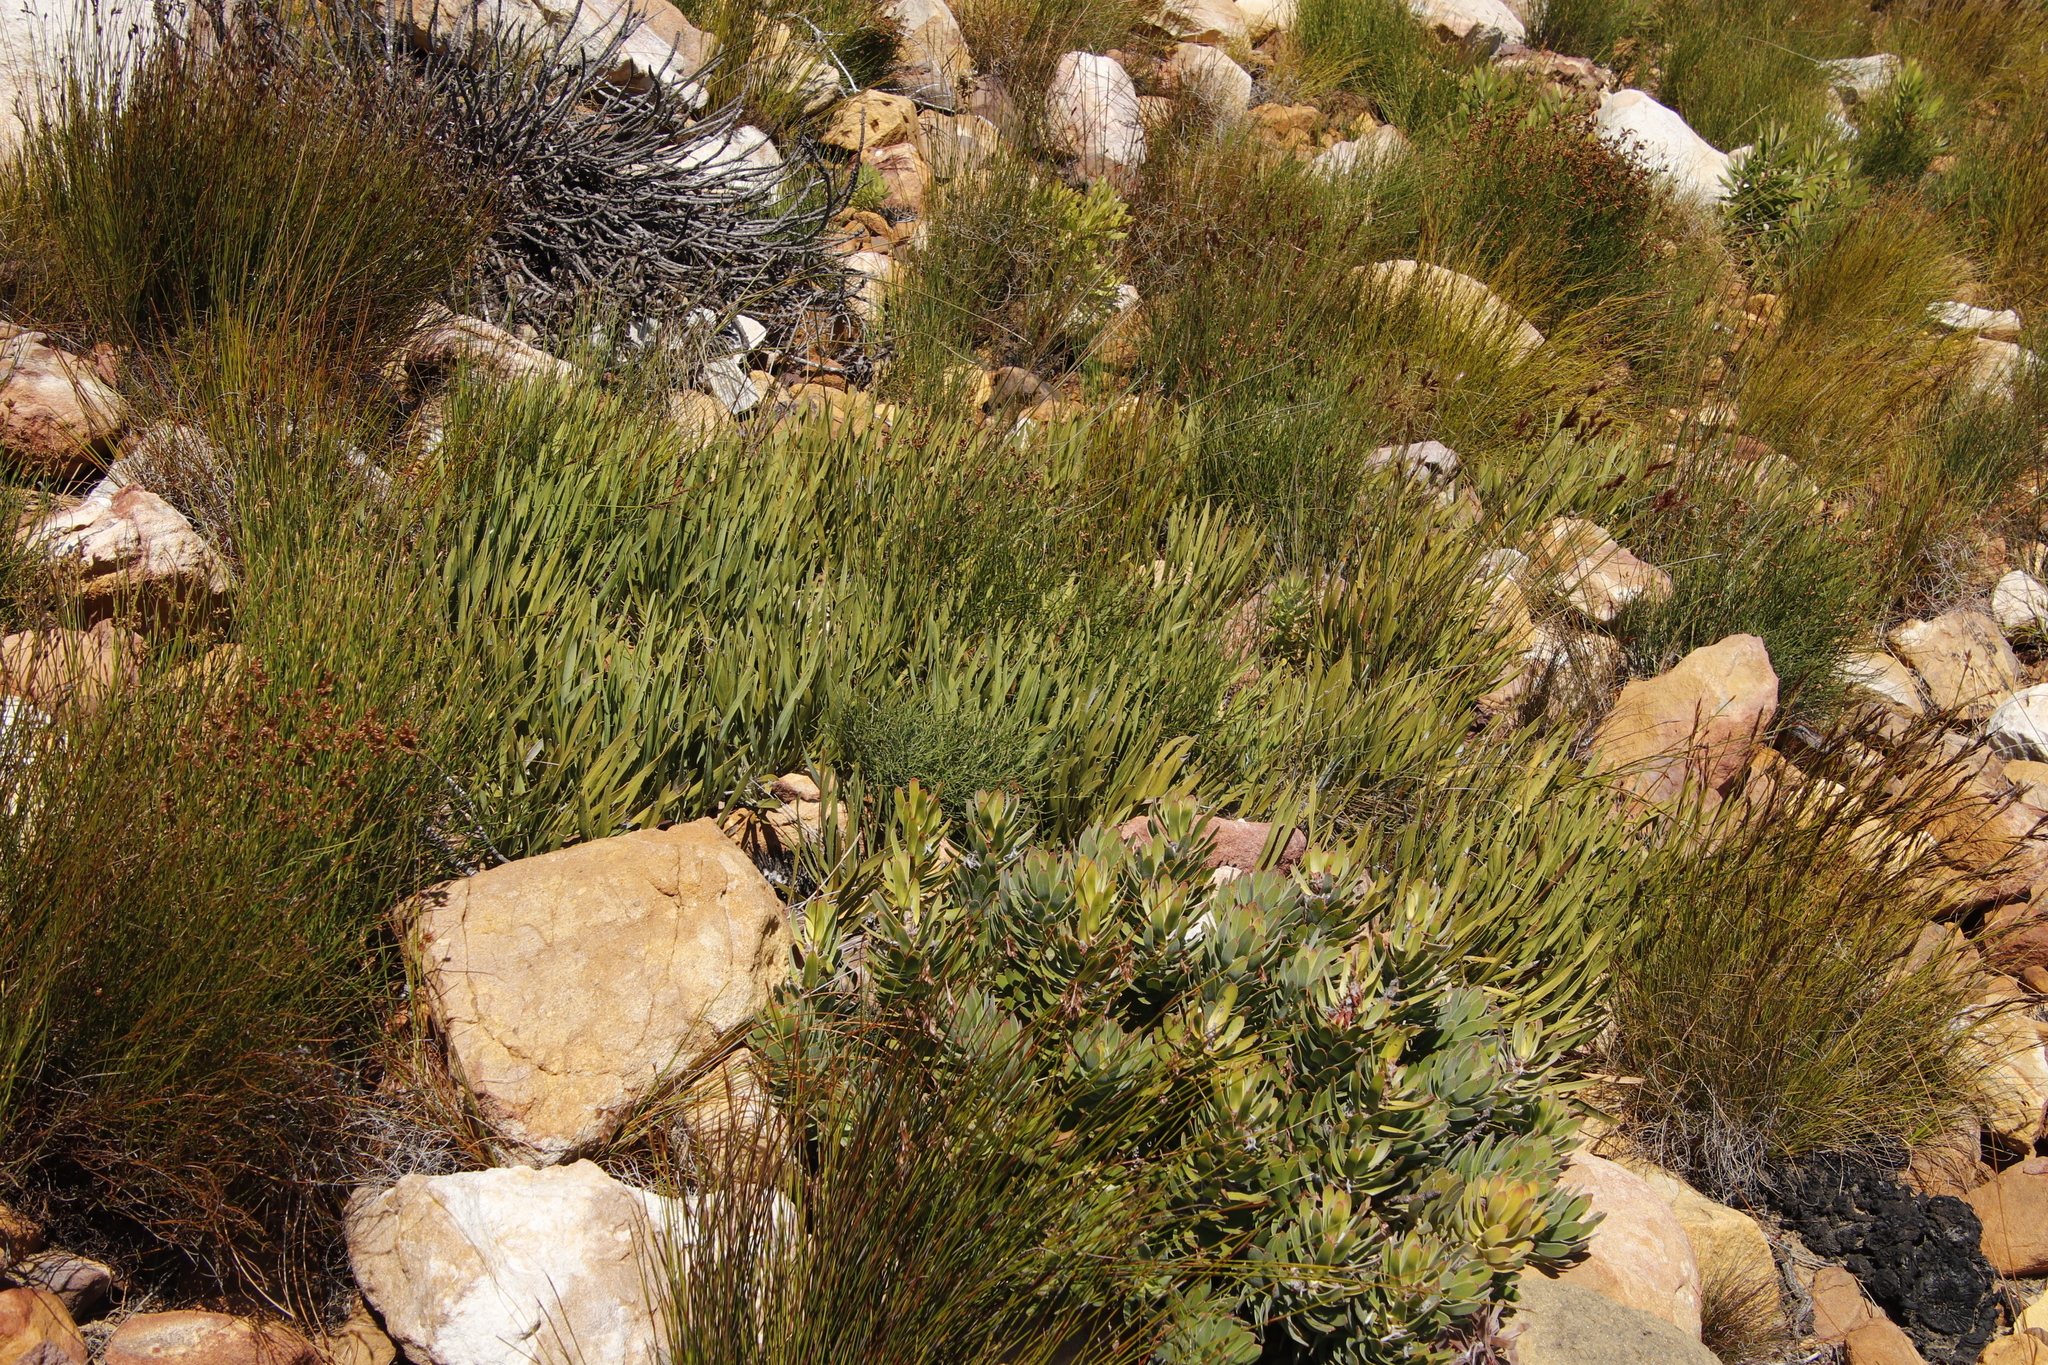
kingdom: Plantae
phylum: Tracheophyta
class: Magnoliopsida
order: Proteales
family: Proteaceae
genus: Protea
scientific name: Protea scabra
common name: Sandpaper-leaf sugarbush
